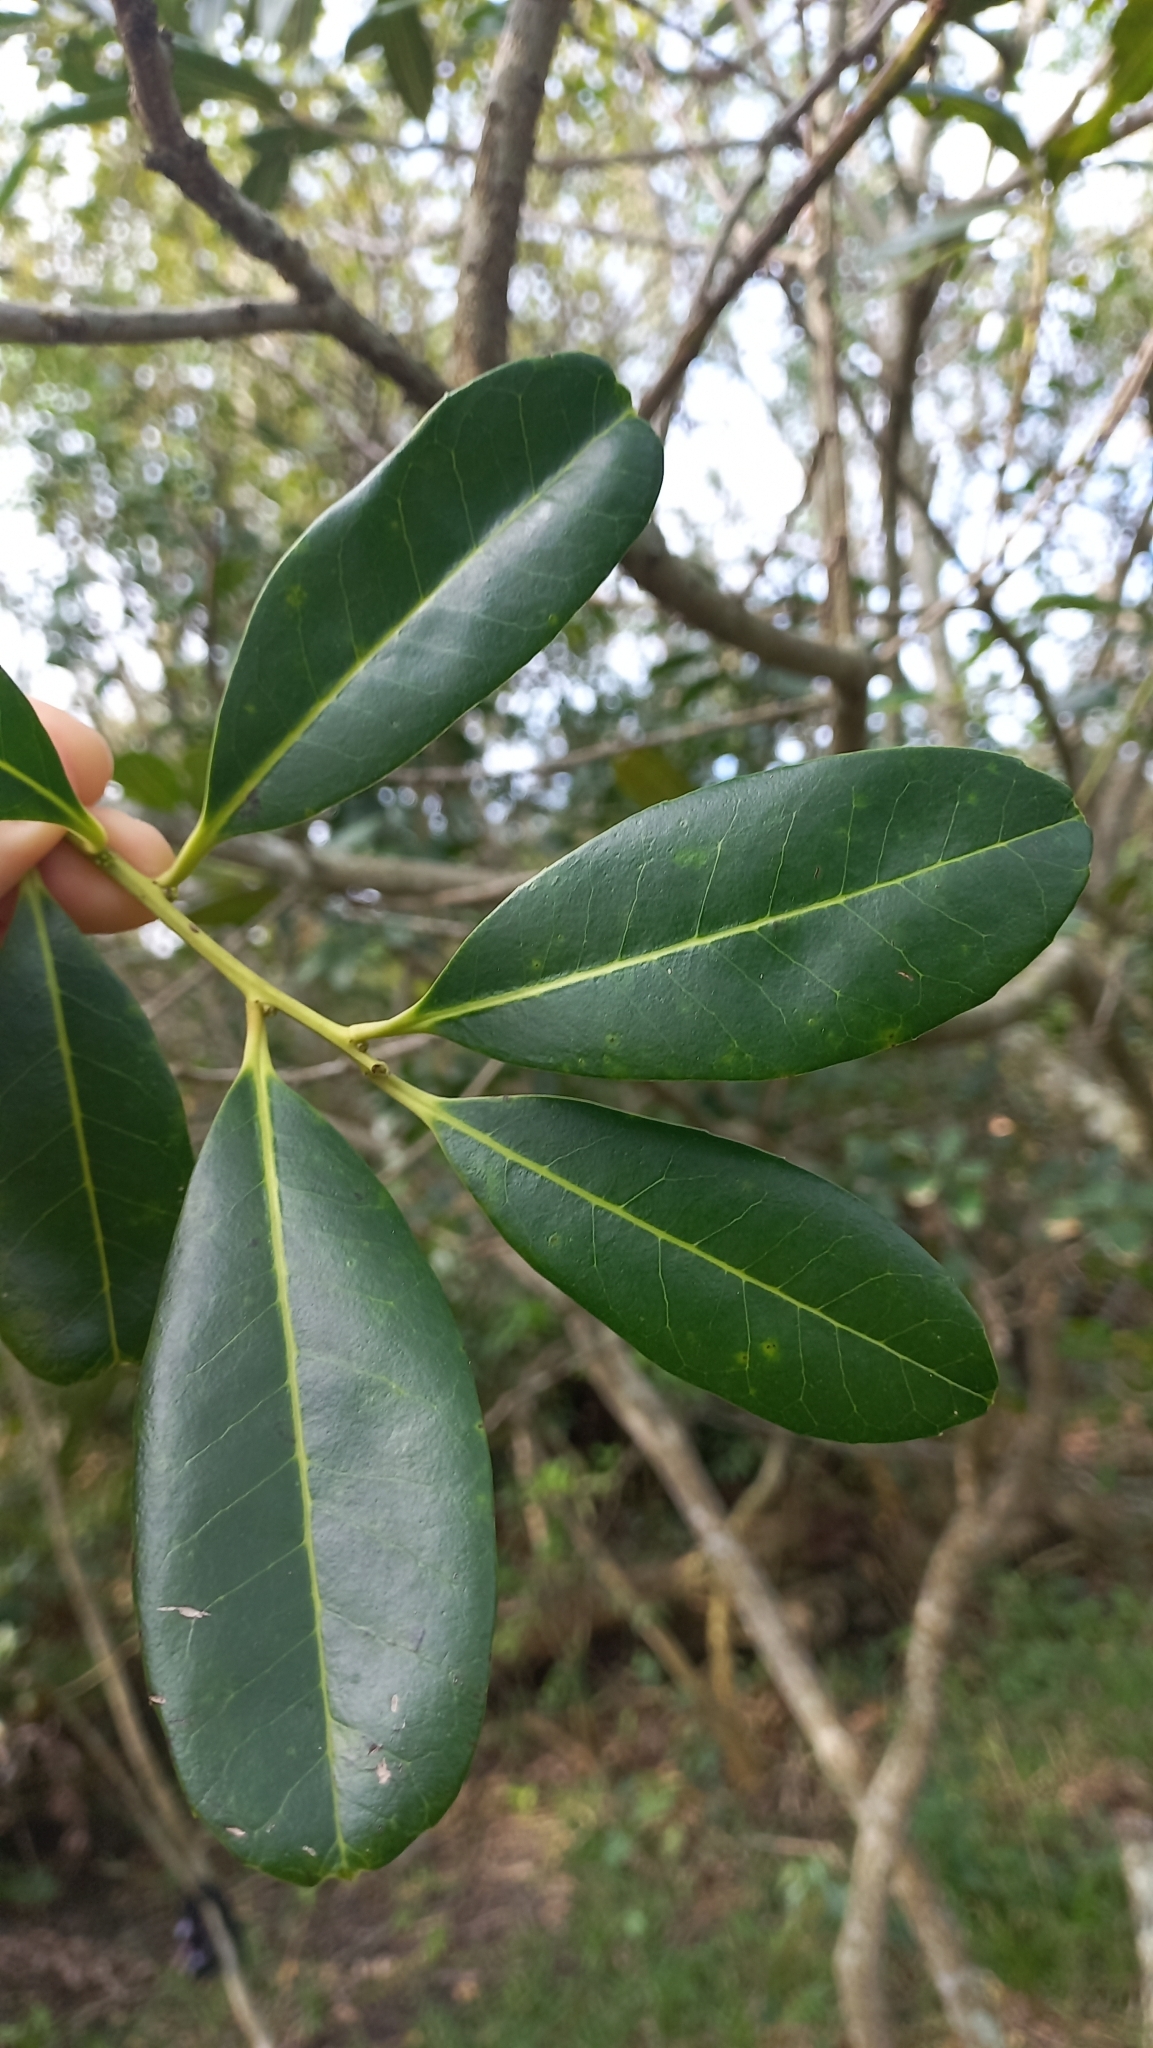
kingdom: Plantae
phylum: Tracheophyta
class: Magnoliopsida
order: Aquifoliales
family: Aquifoliaceae
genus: Ilex
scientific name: Ilex theezans
